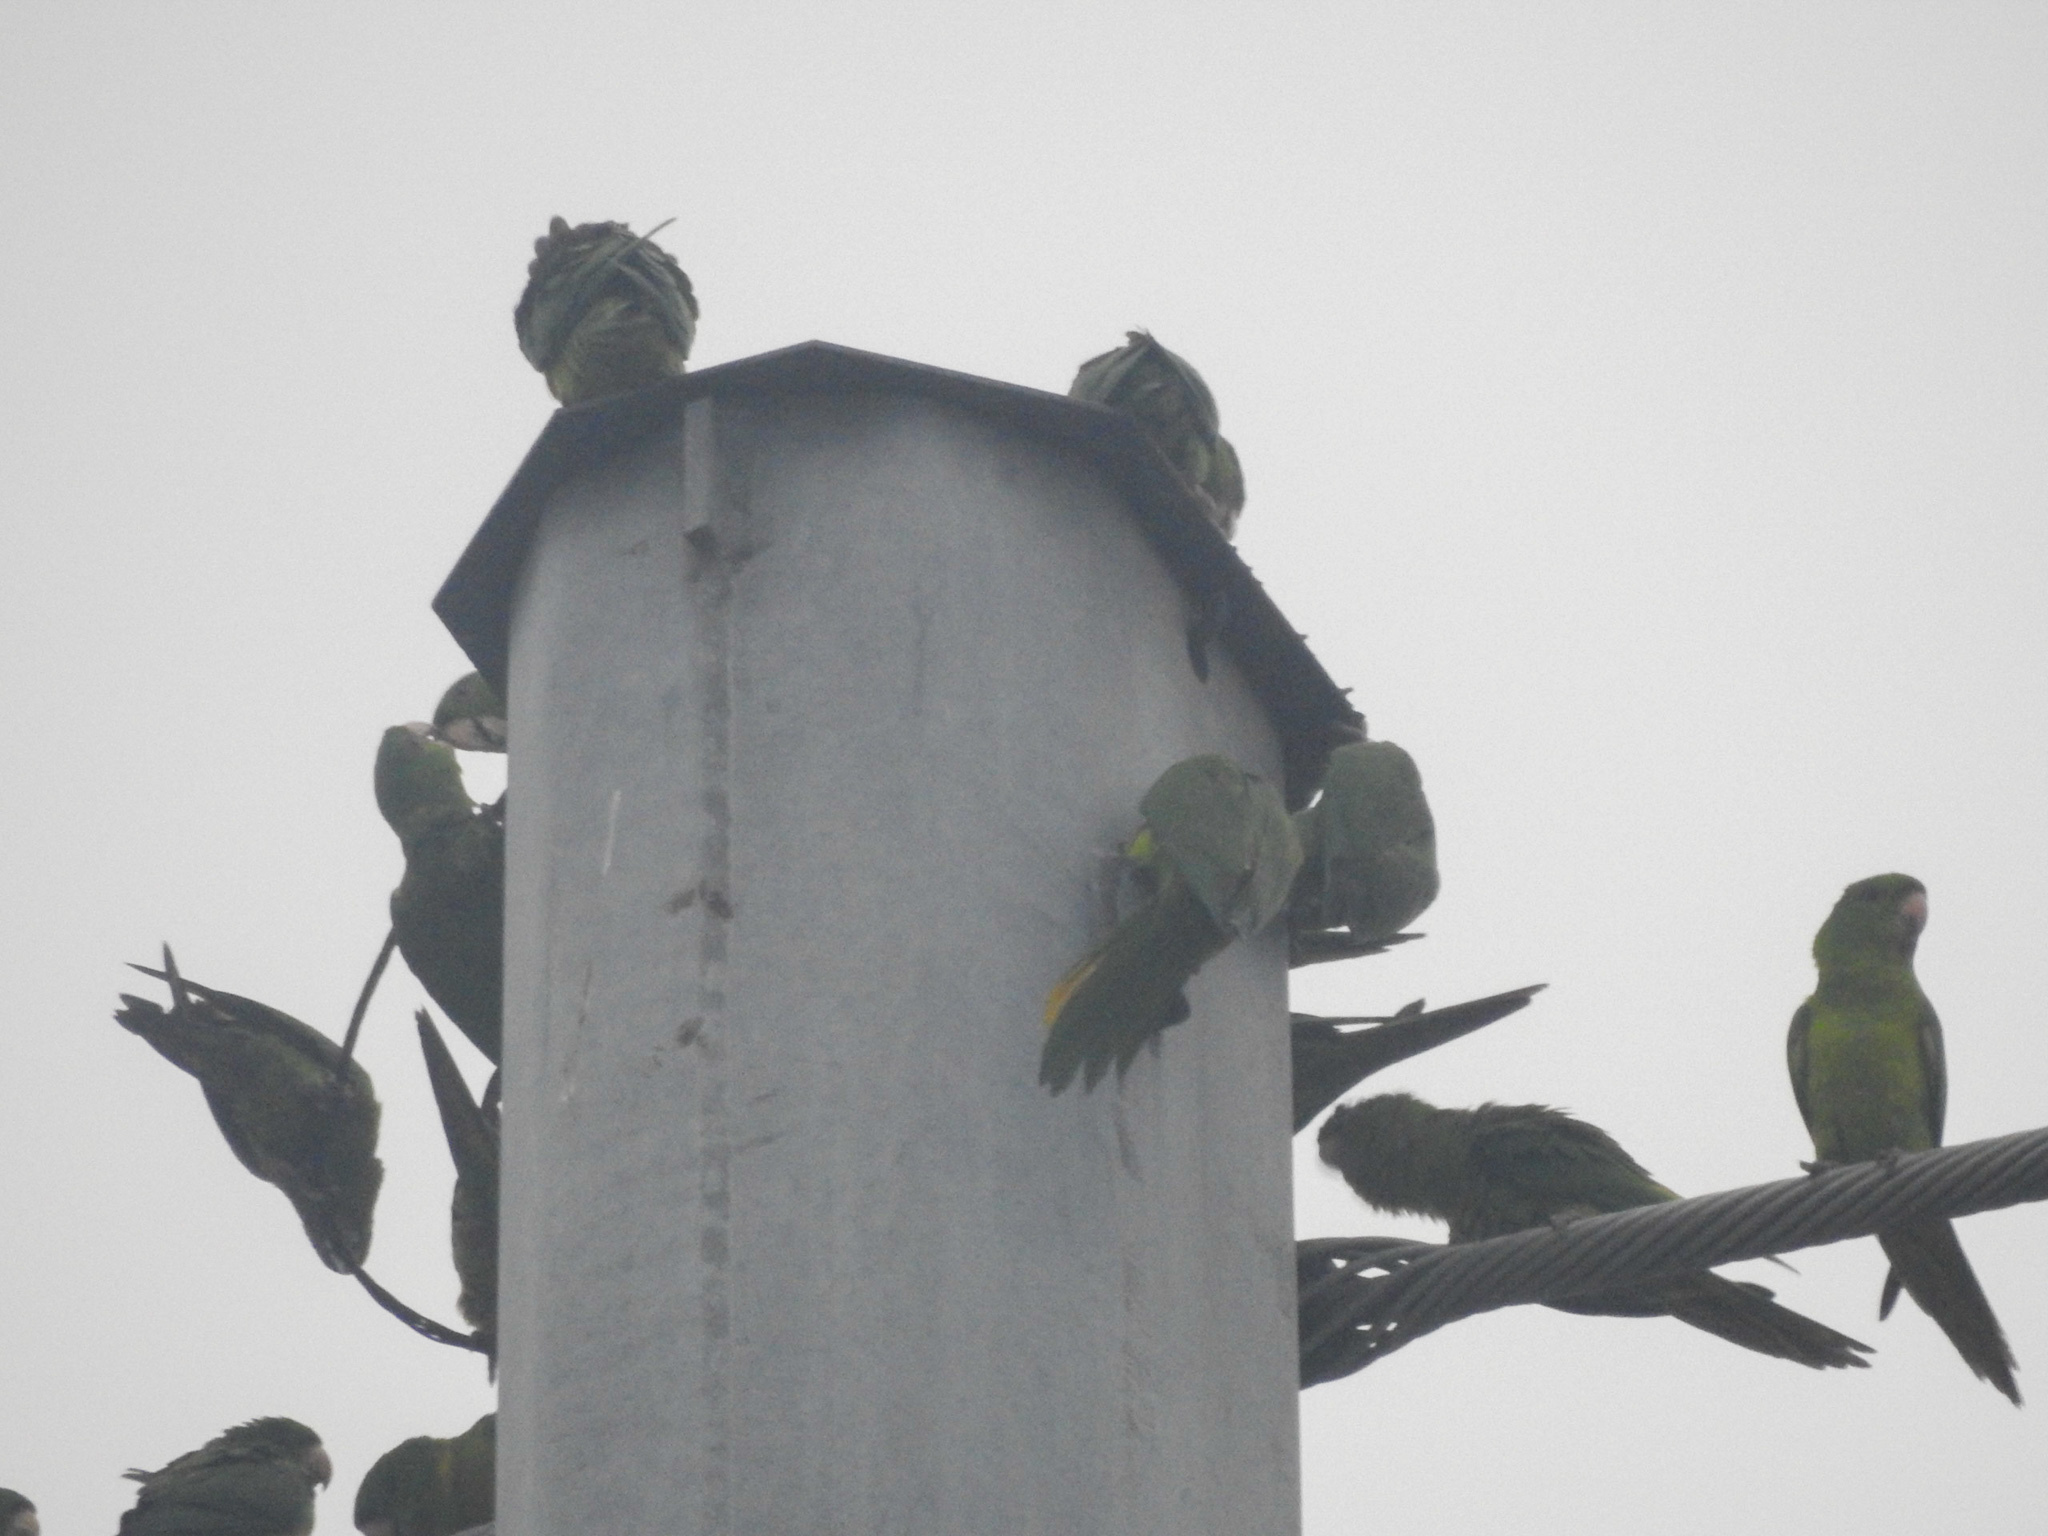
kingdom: Animalia
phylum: Chordata
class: Aves
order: Psittaciformes
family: Psittacidae
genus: Aratinga
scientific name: Aratinga holochlora
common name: Green parakeet
